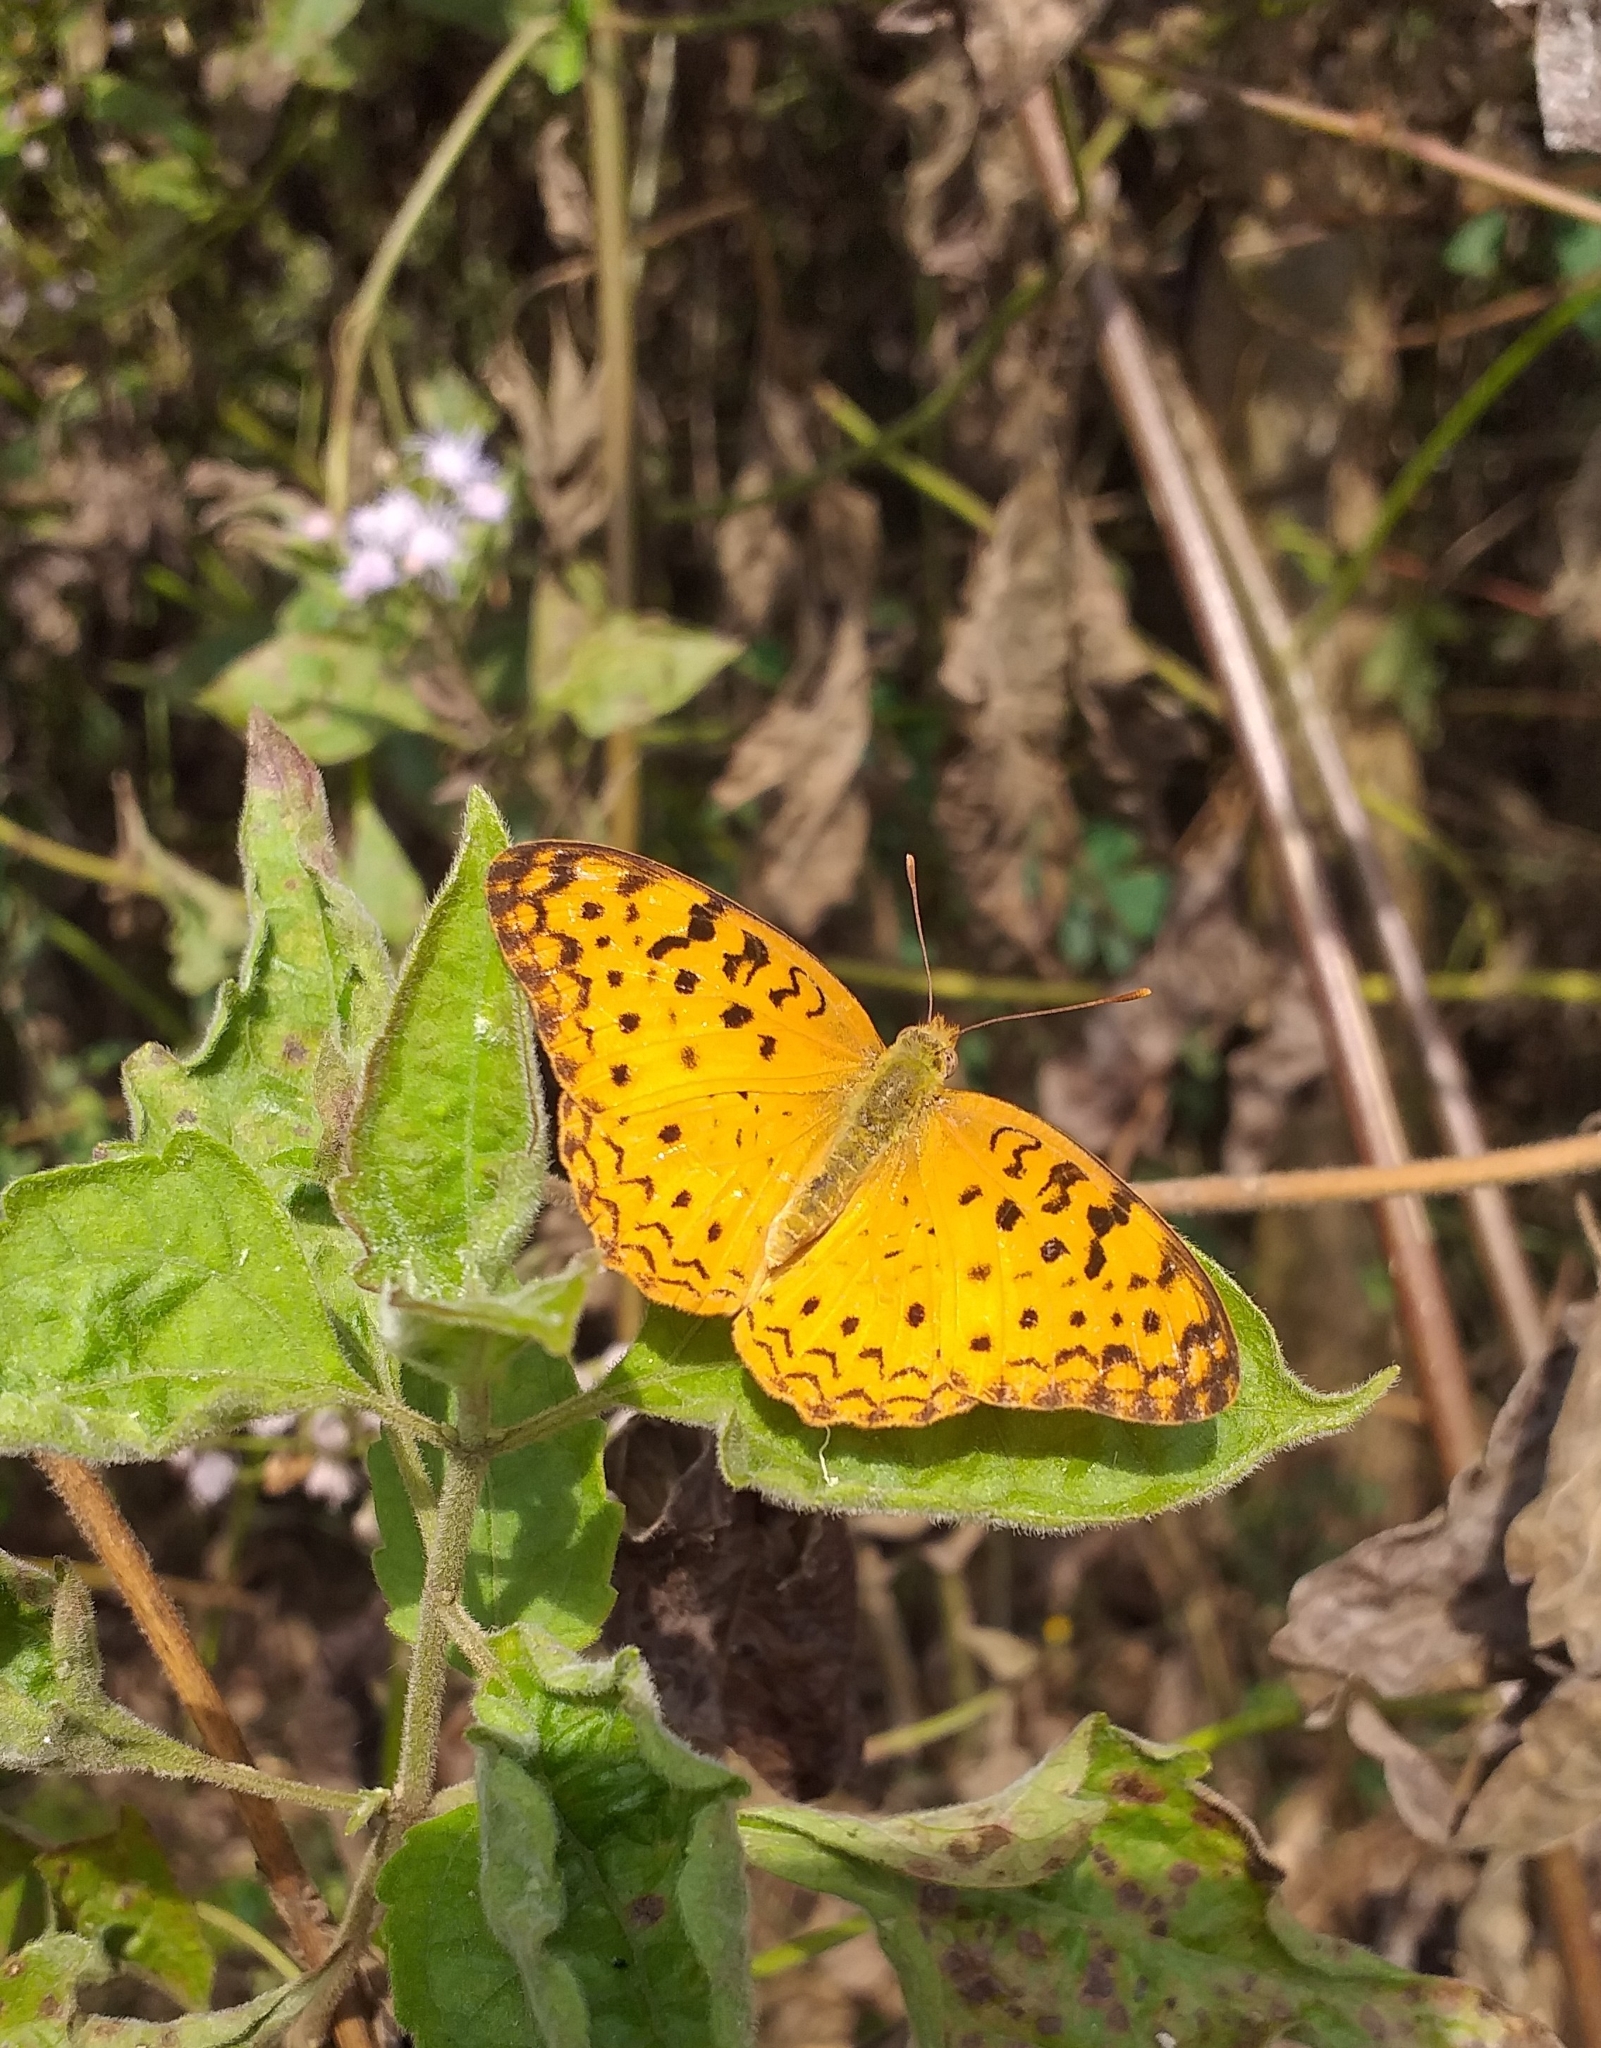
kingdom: Animalia
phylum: Arthropoda
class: Insecta
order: Lepidoptera
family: Nymphalidae
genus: Phalanta
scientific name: Phalanta phalantha
